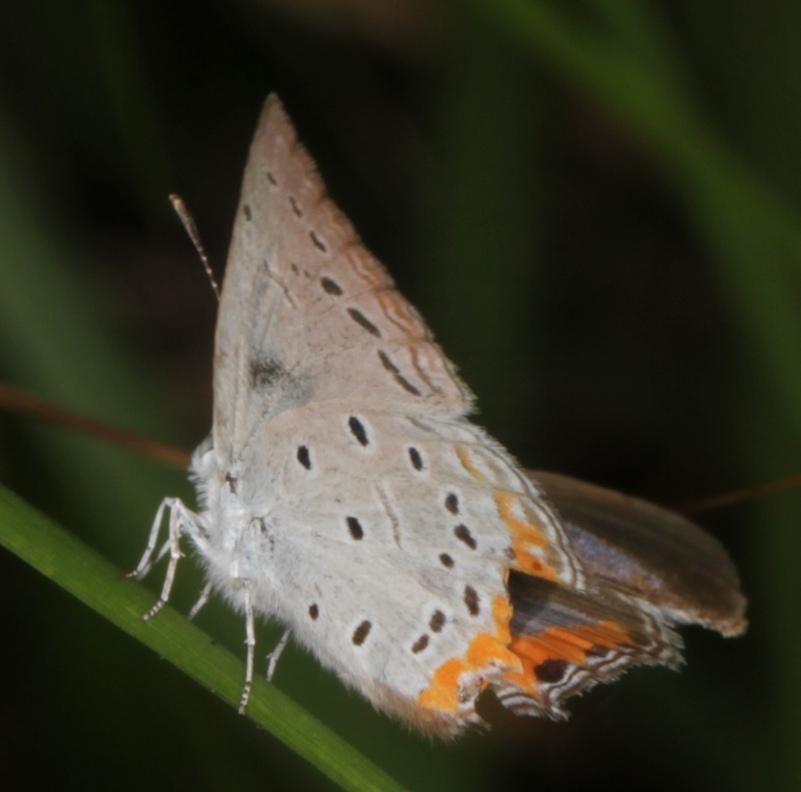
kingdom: Animalia
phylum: Arthropoda
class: Insecta
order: Lepidoptera
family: Lycaenidae
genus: Cupidopsis
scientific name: Cupidopsis jobates
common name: Tailed meadow blue
